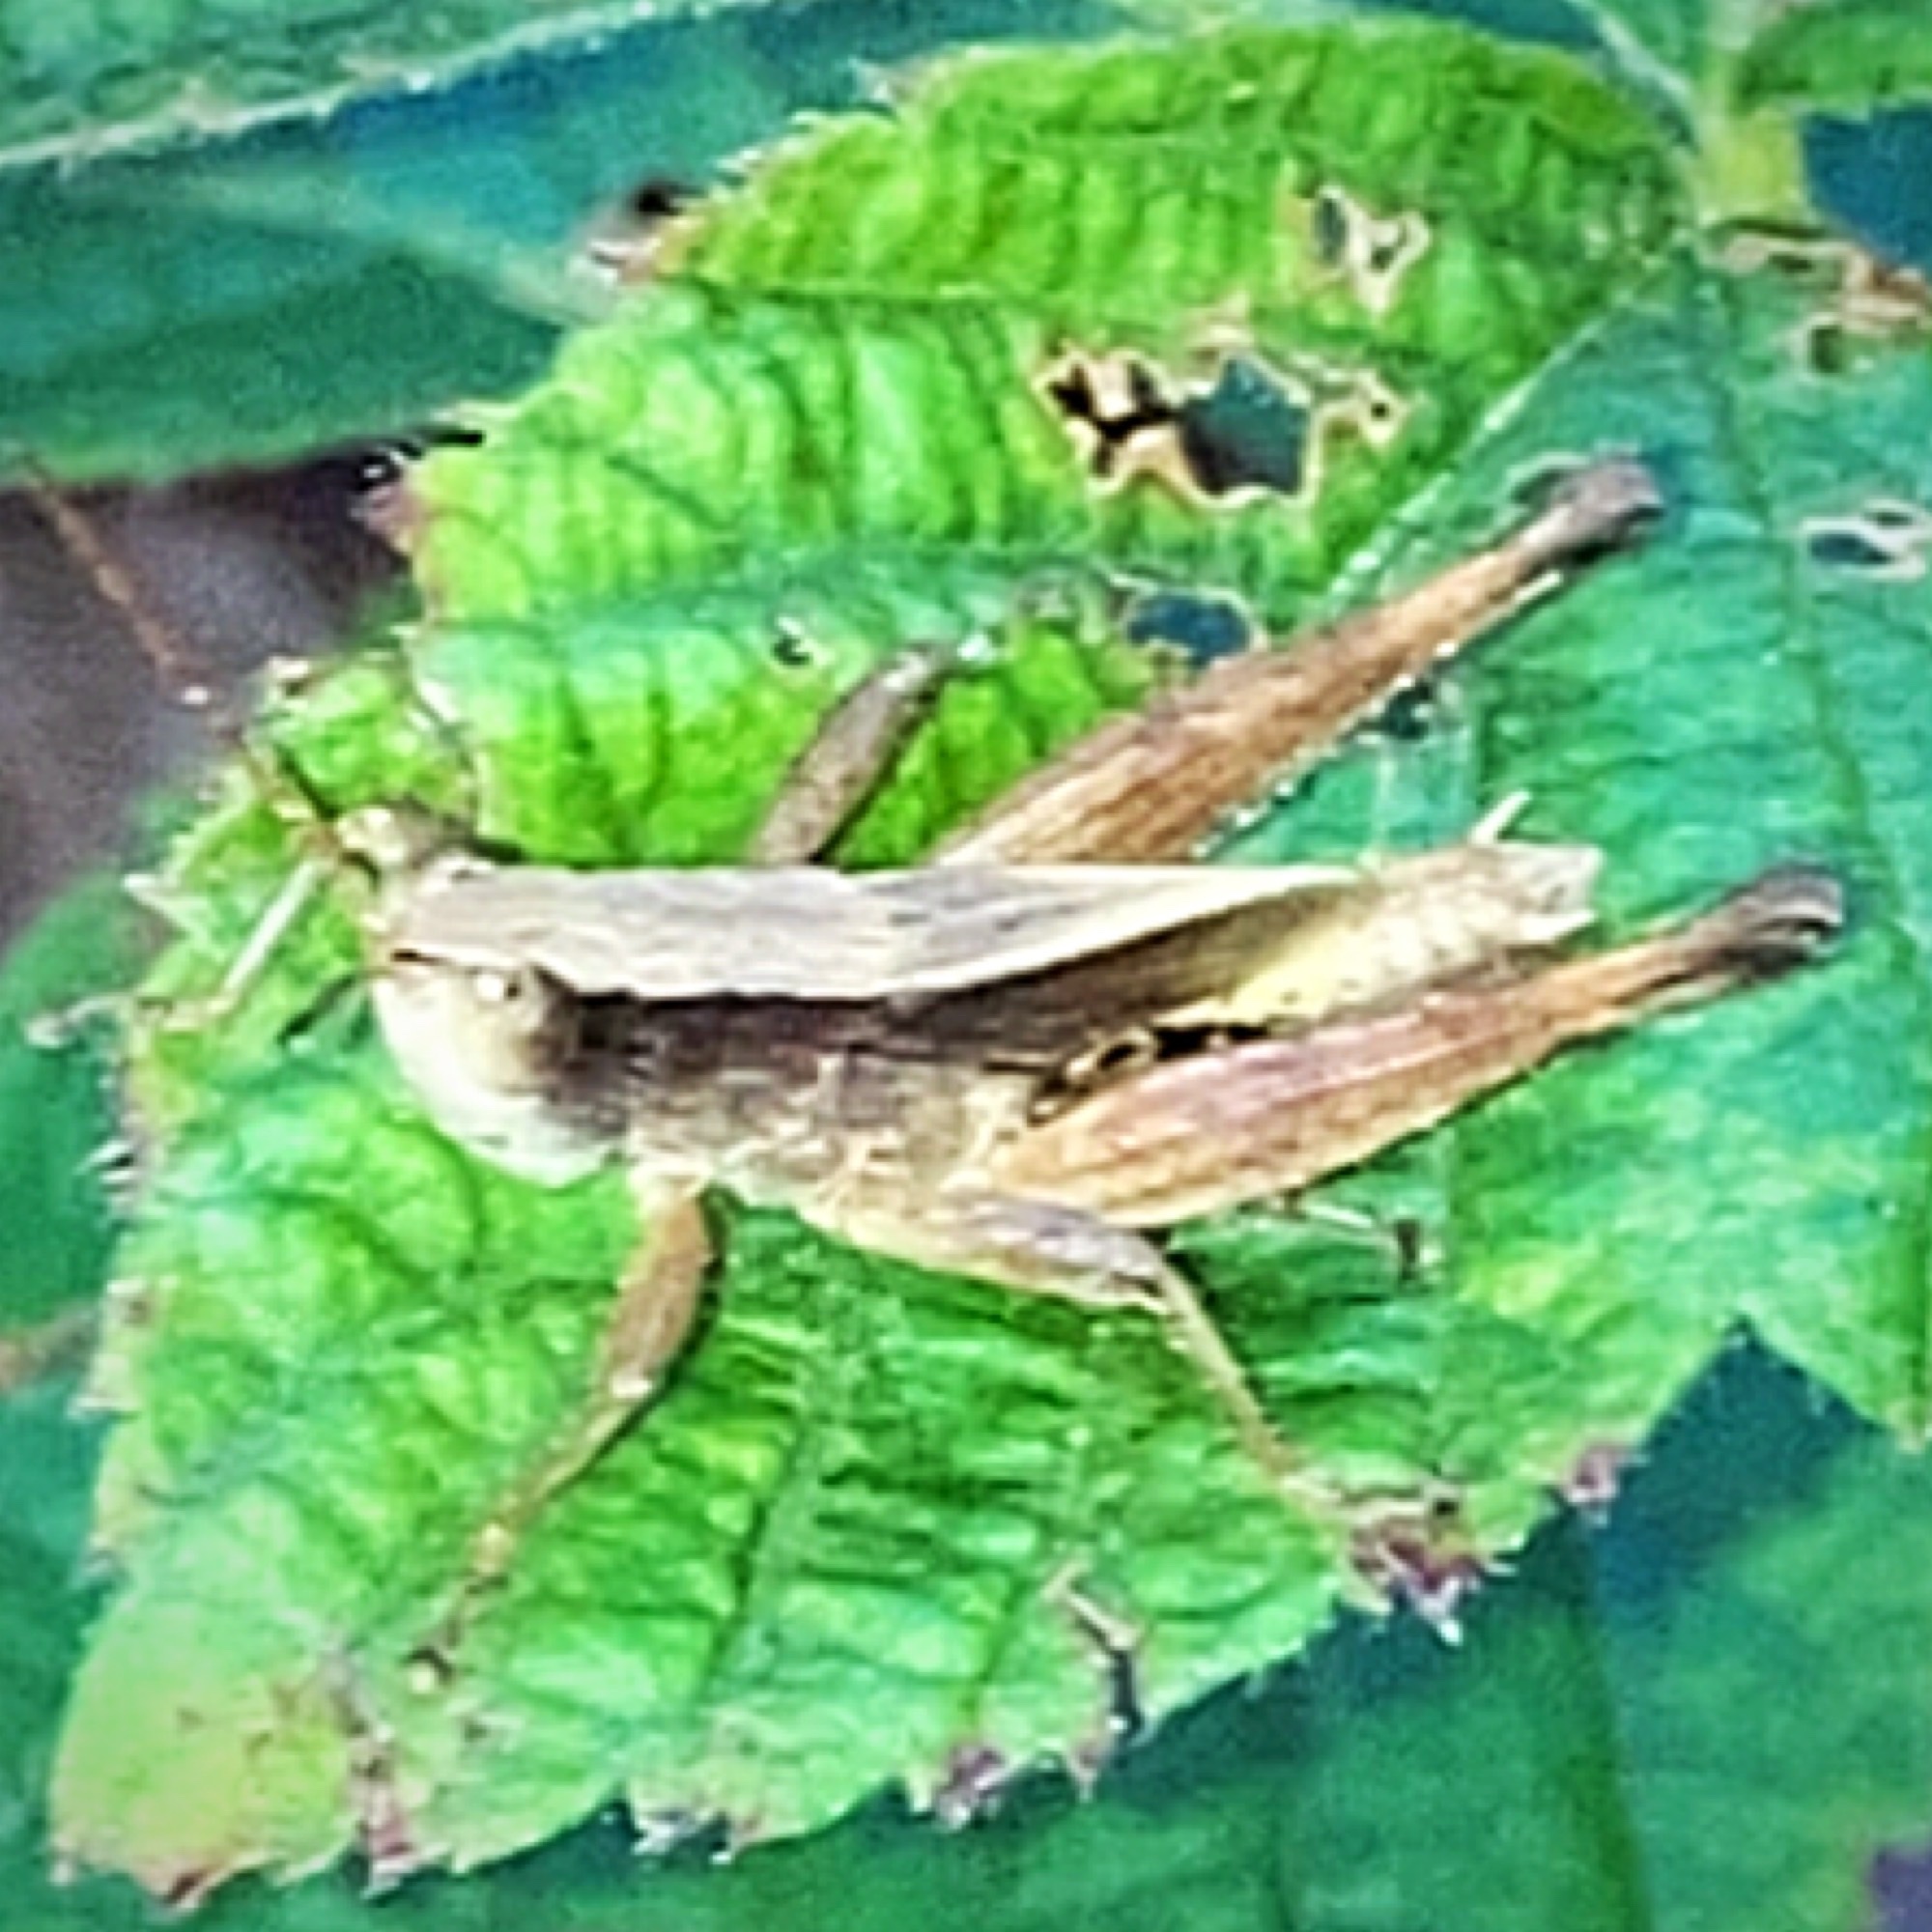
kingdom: Animalia
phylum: Arthropoda
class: Insecta
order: Orthoptera
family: Acrididae
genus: Dichromorpha
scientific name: Dichromorpha viridis
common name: Short-winged green grasshopper
